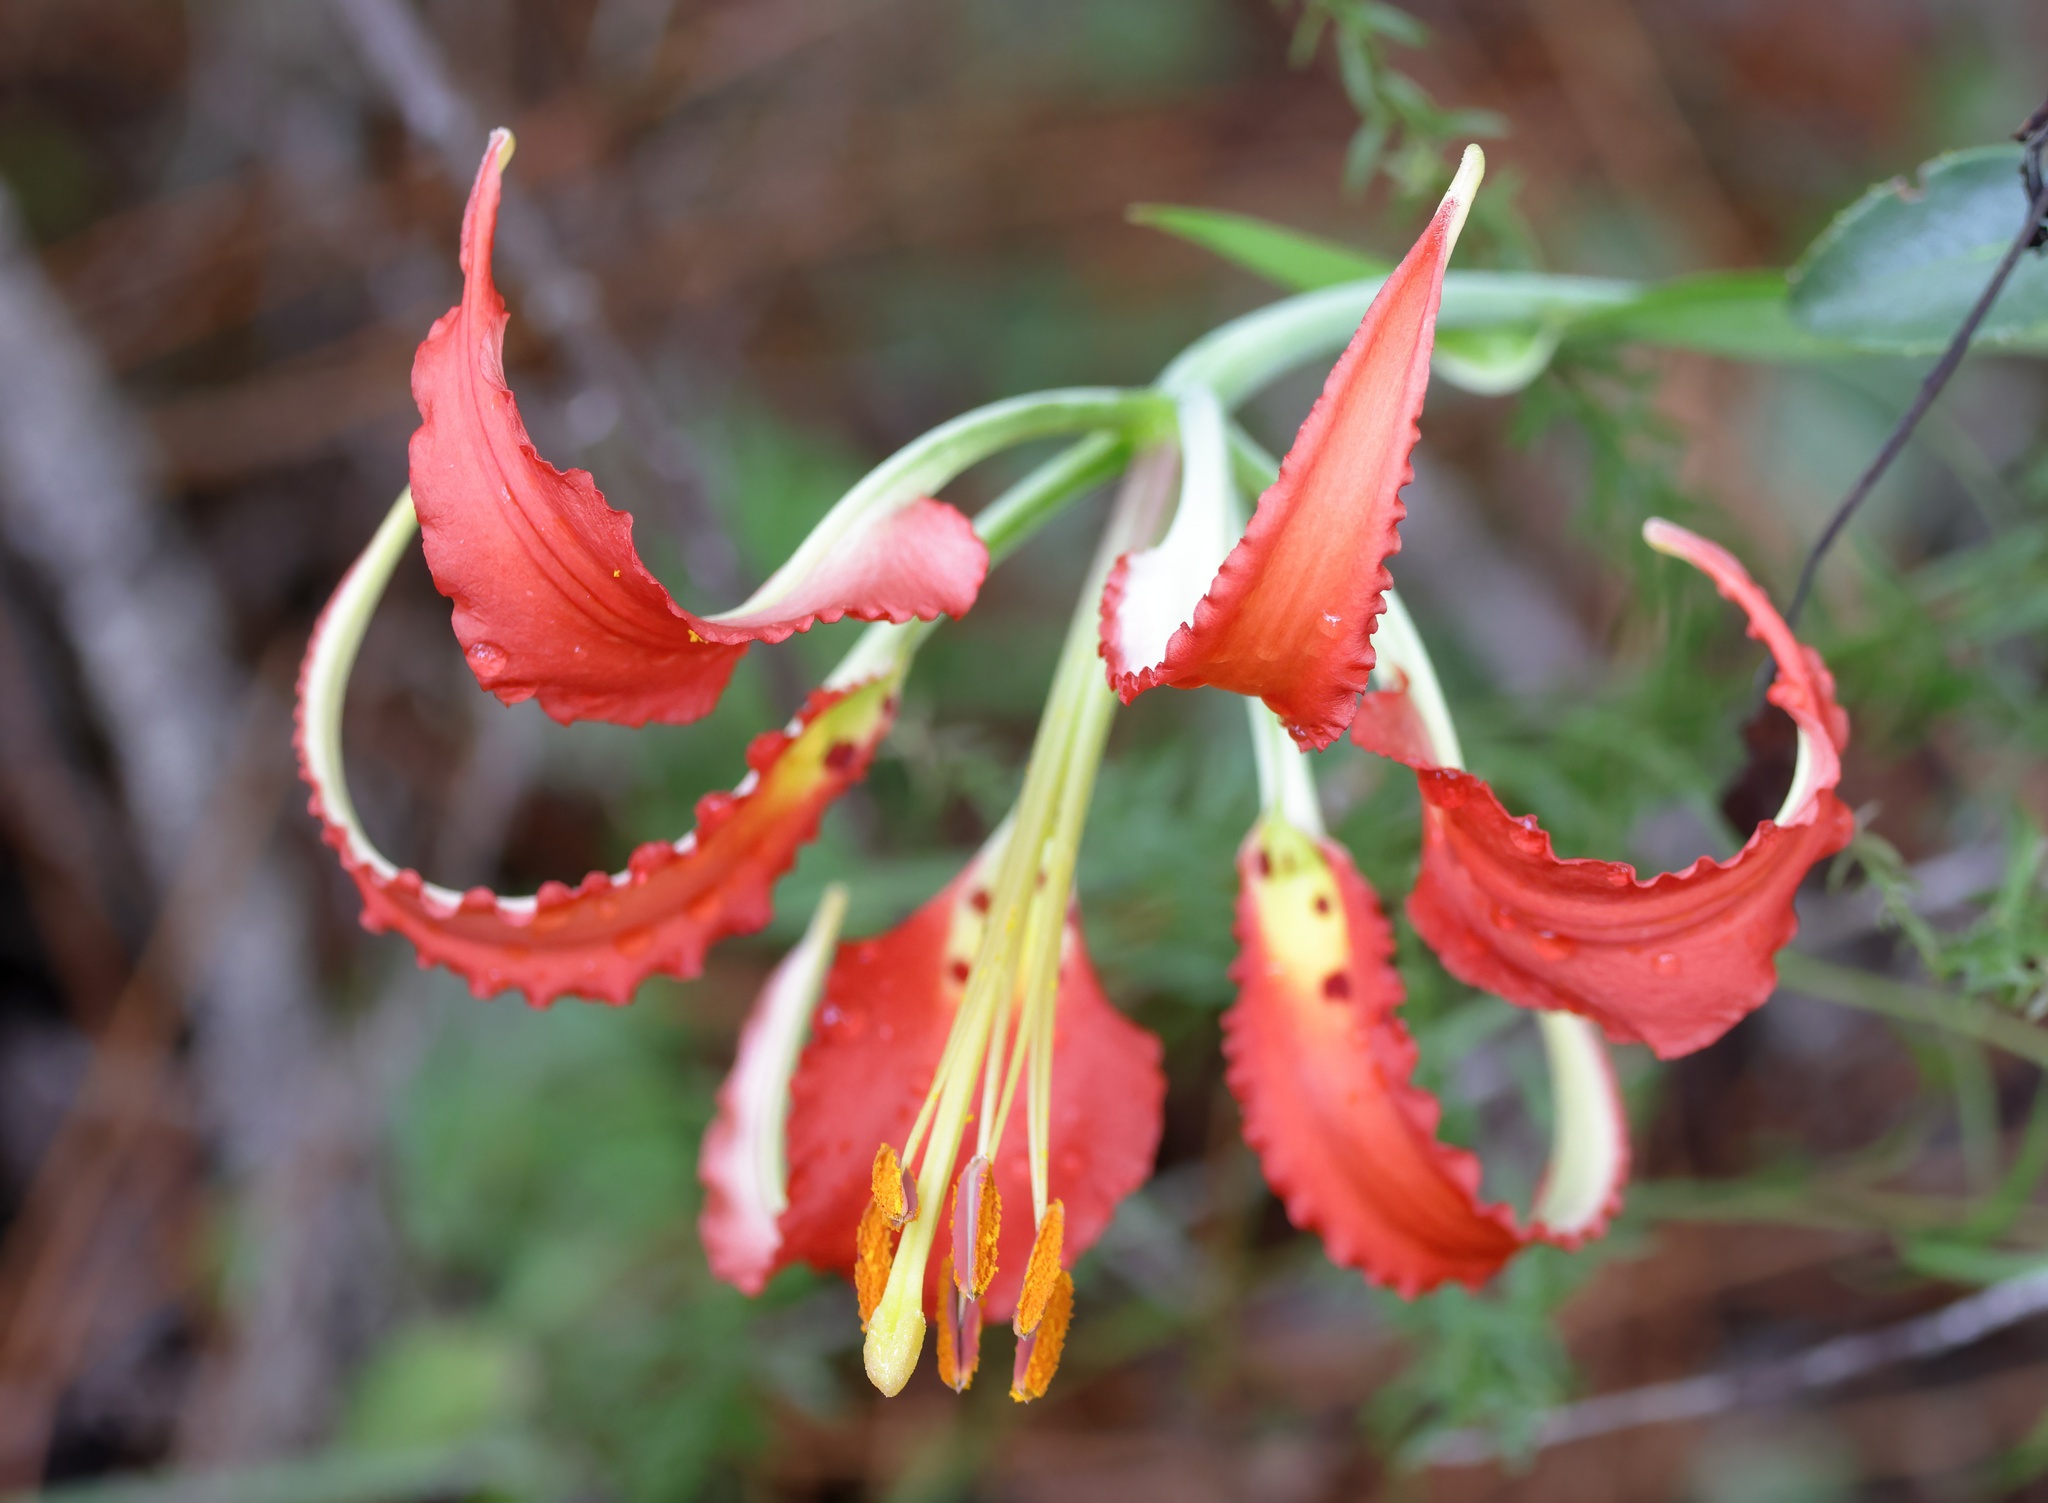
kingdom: Plantae
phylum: Tracheophyta
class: Liliopsida
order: Liliales
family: Liliaceae
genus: Lilium
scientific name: Lilium catesbaei
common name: Catesby's lily
